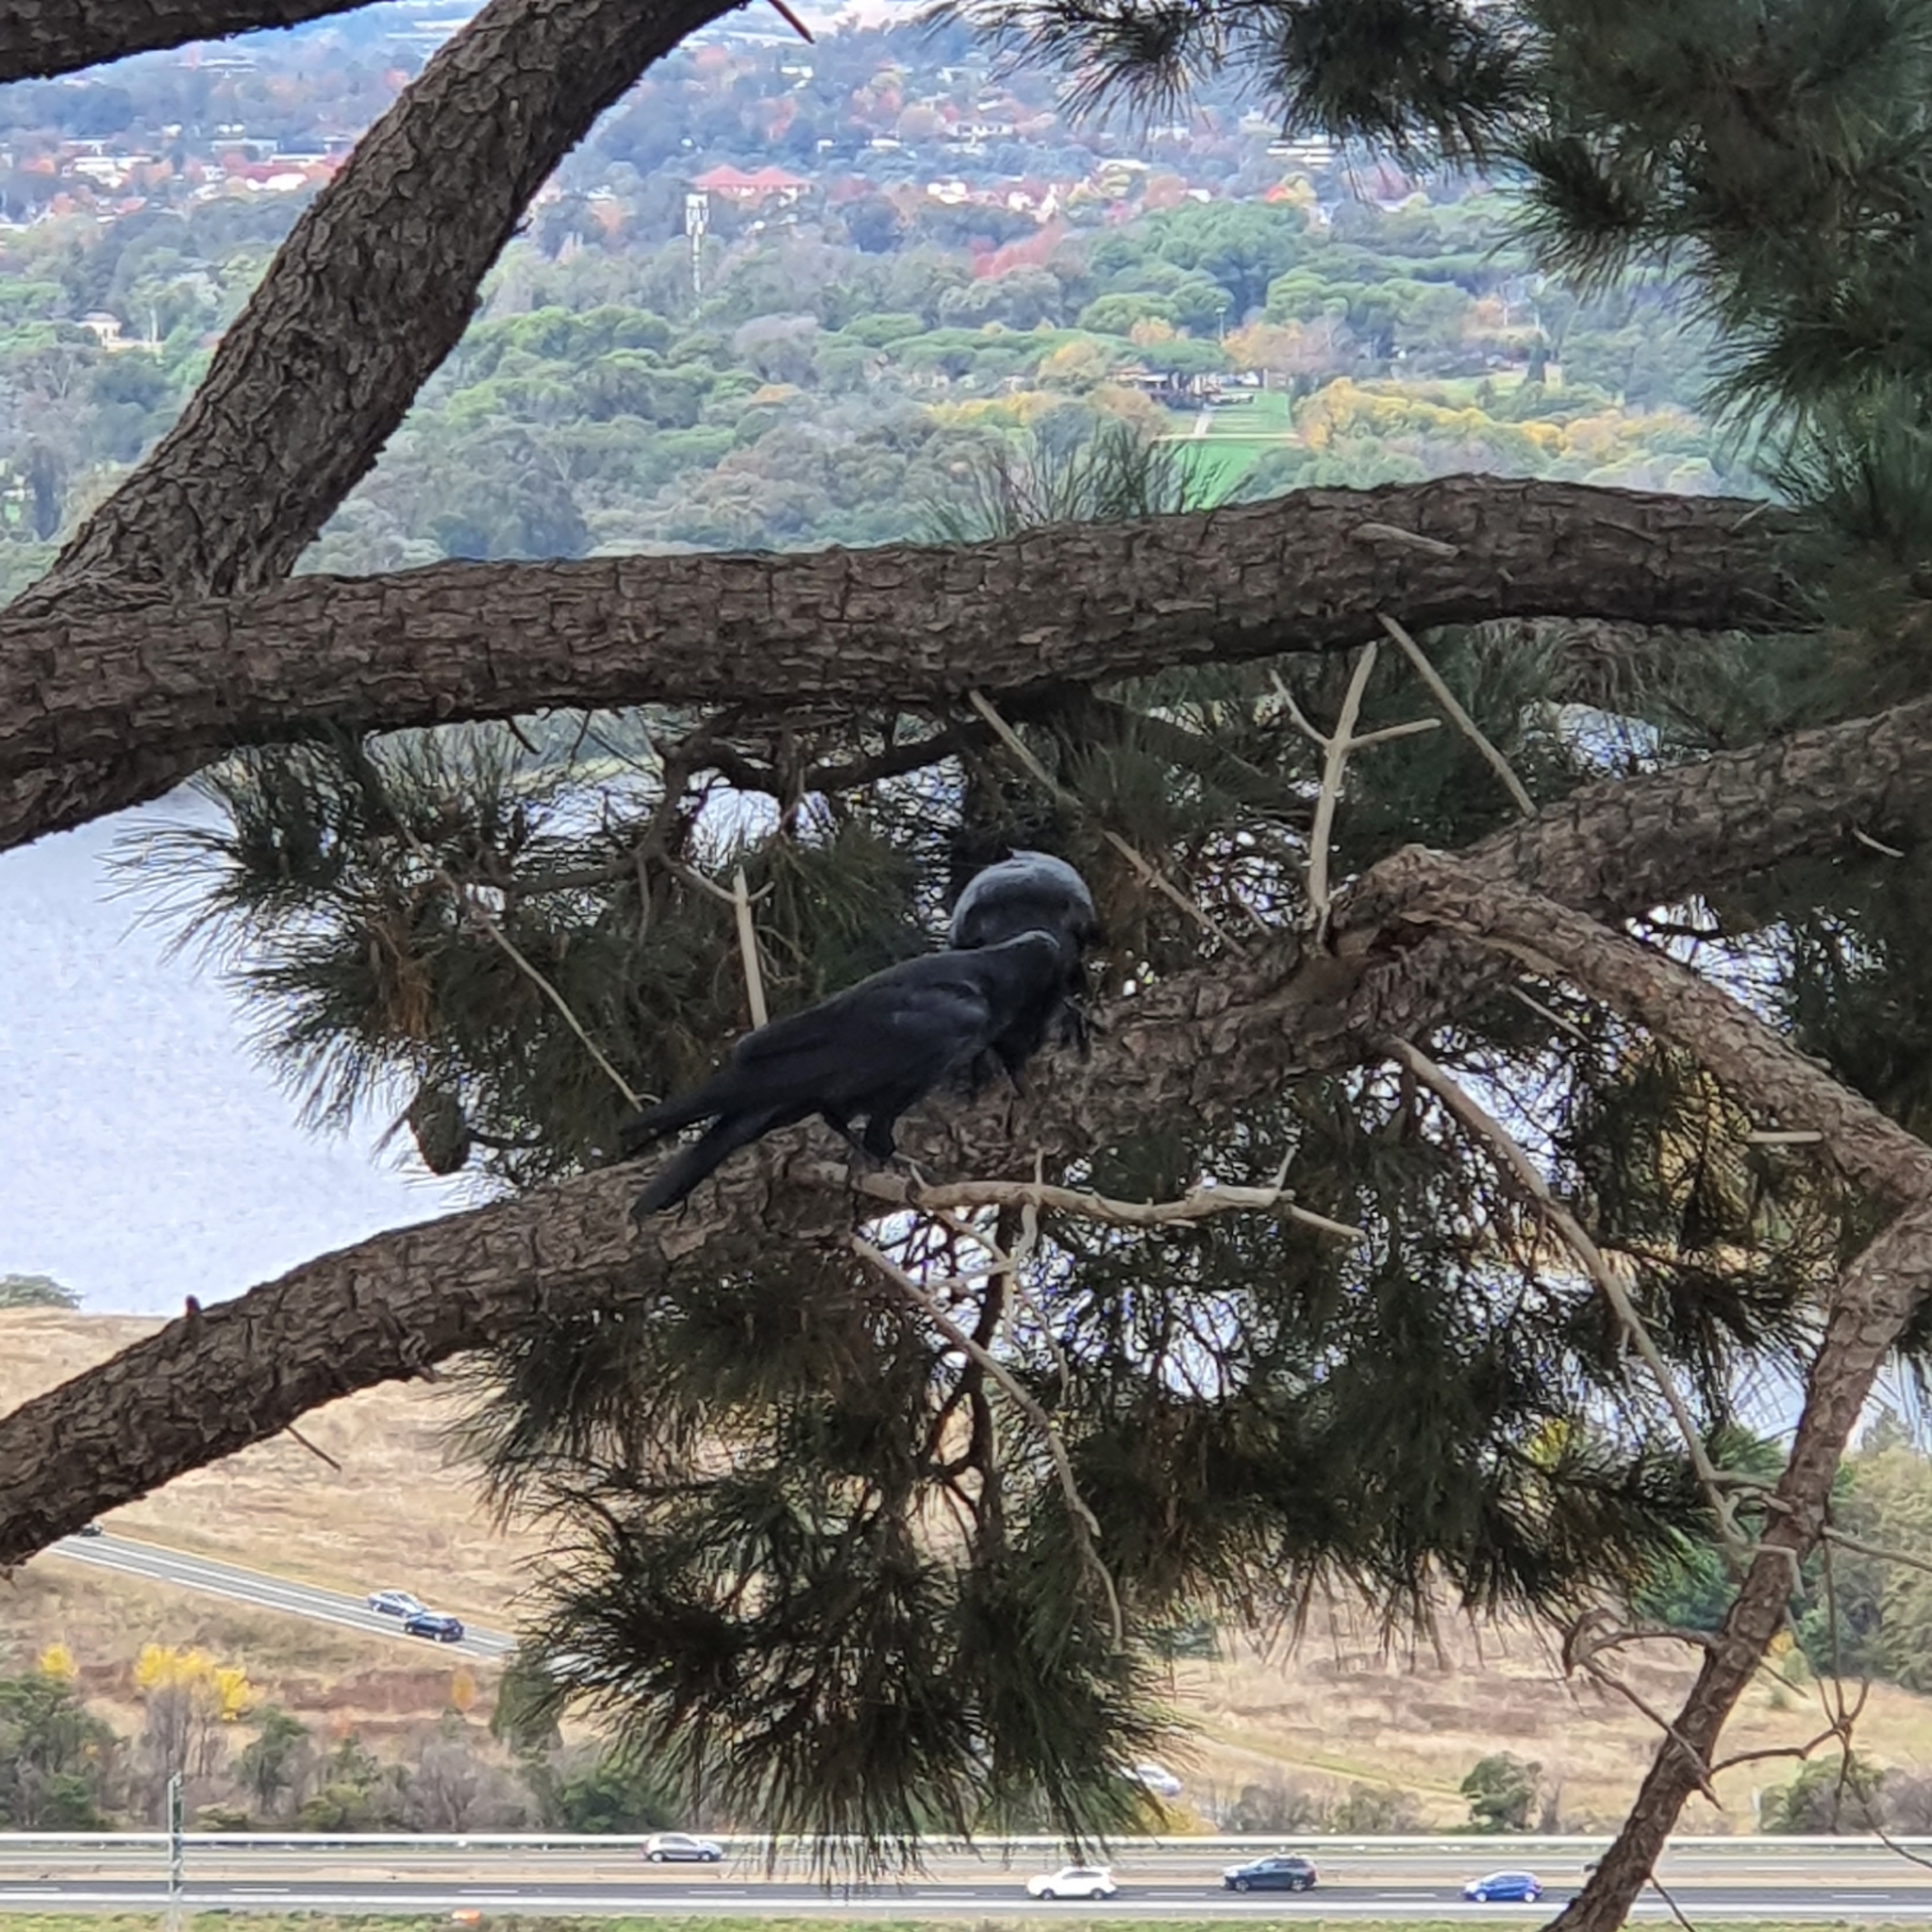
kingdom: Animalia
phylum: Chordata
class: Aves
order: Passeriformes
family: Corvidae
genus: Corvus
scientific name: Corvus coronoides
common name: Australian raven
